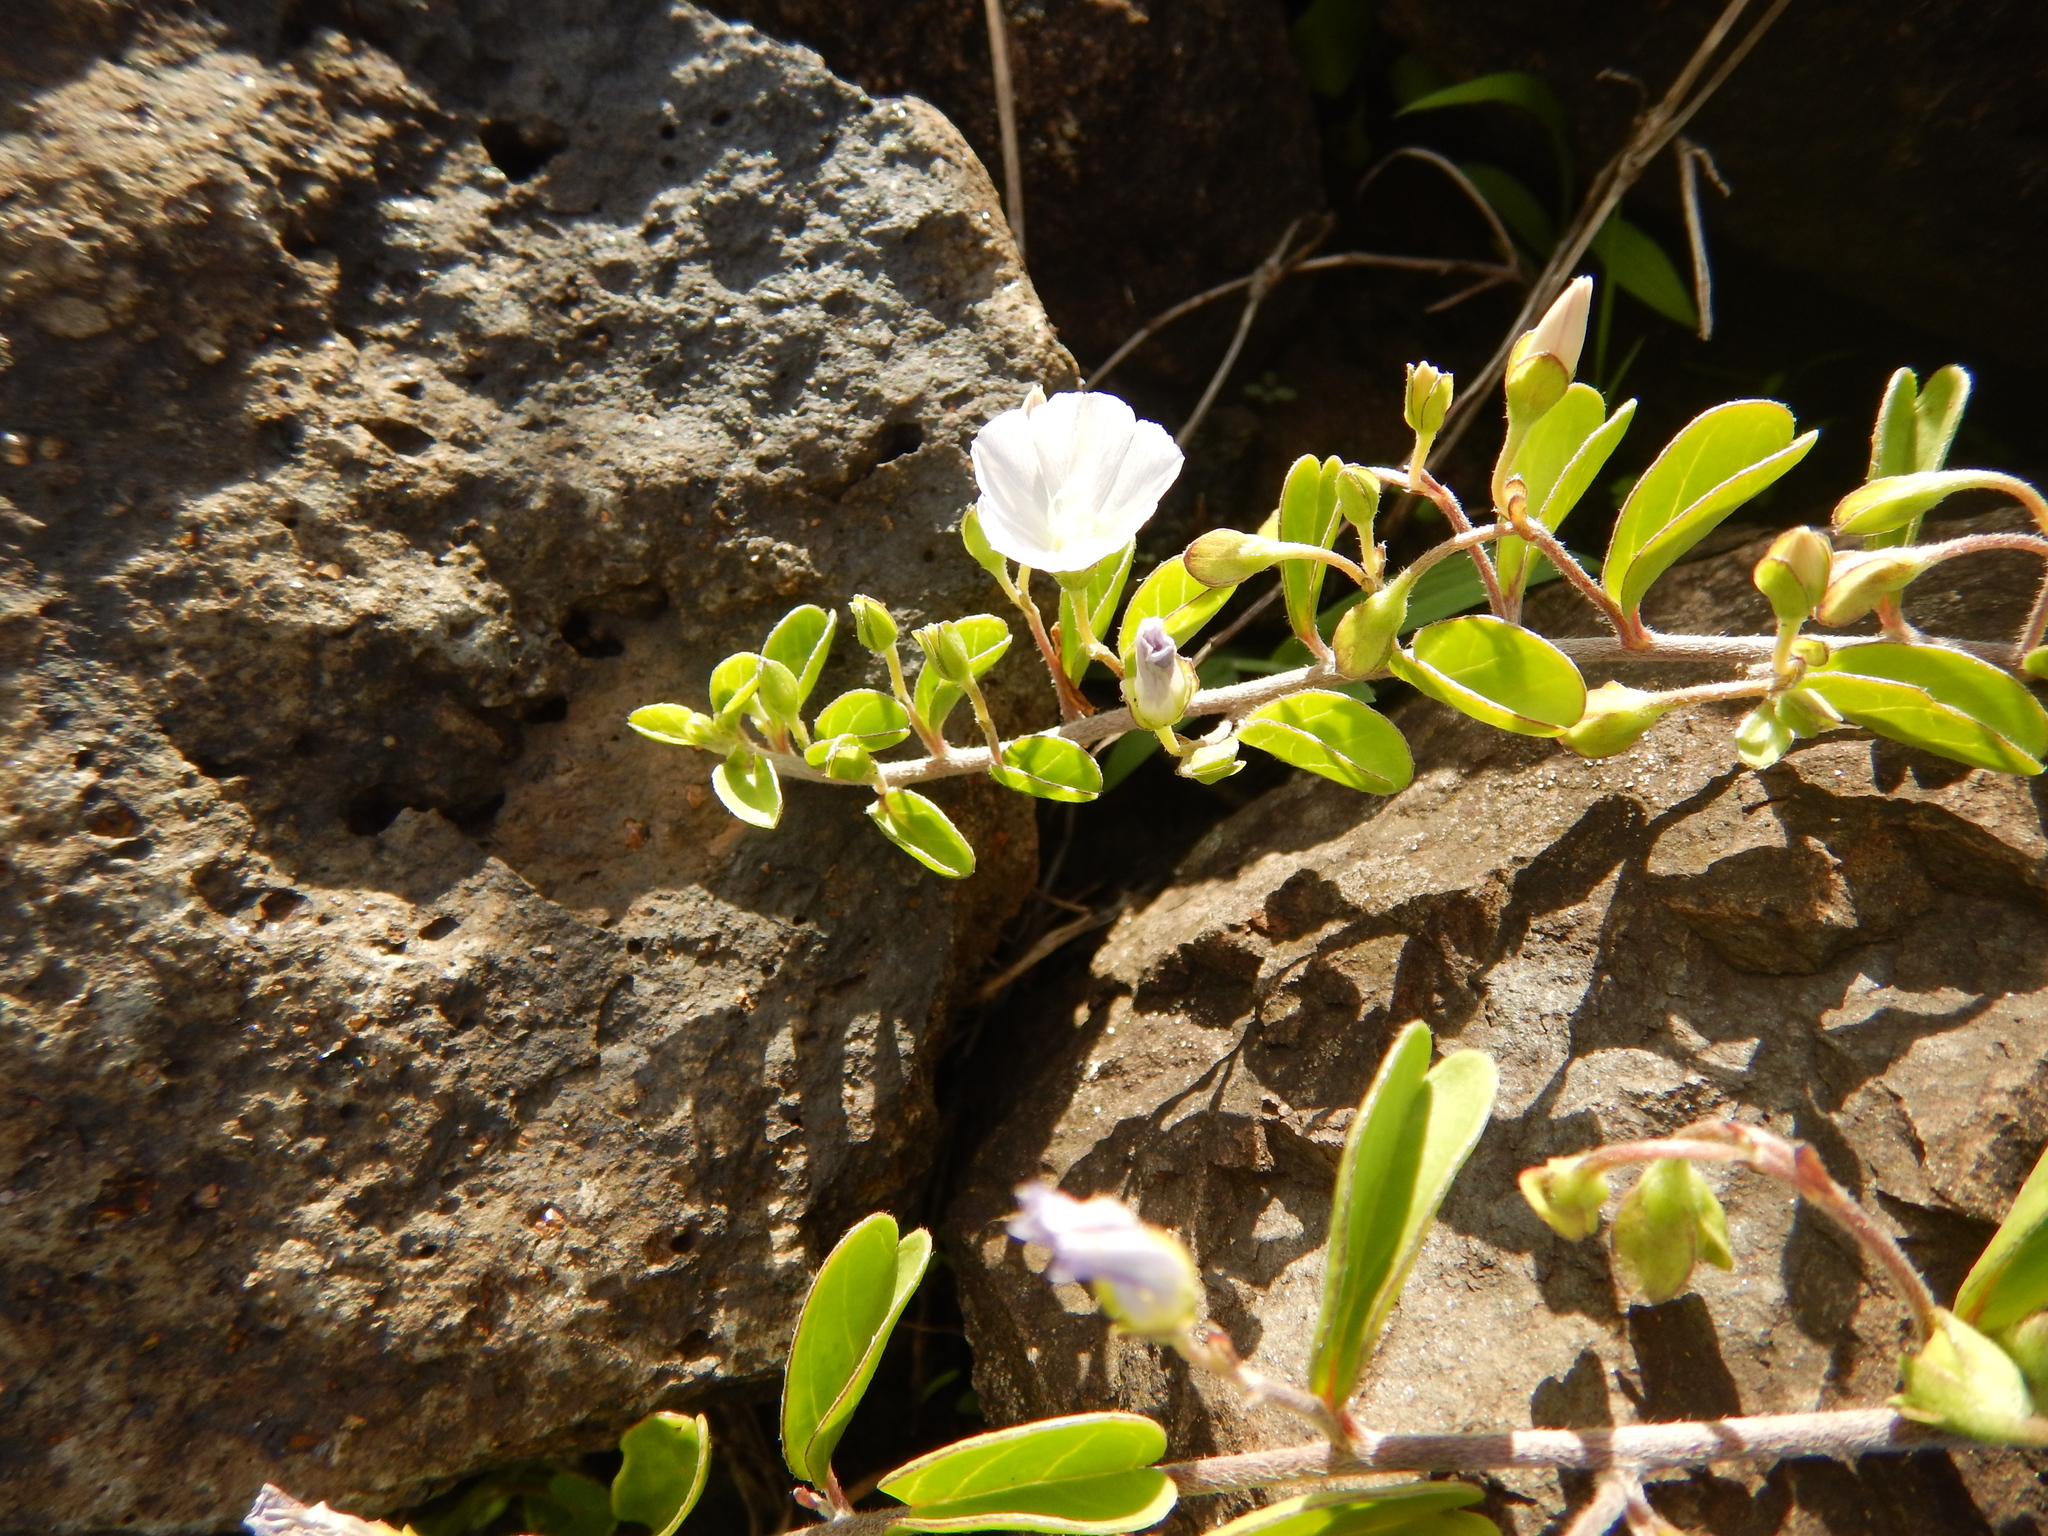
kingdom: Plantae
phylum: Tracheophyta
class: Magnoliopsida
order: Solanales
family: Convolvulaceae
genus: Jacquemontia
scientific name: Jacquemontia sandwicensis
